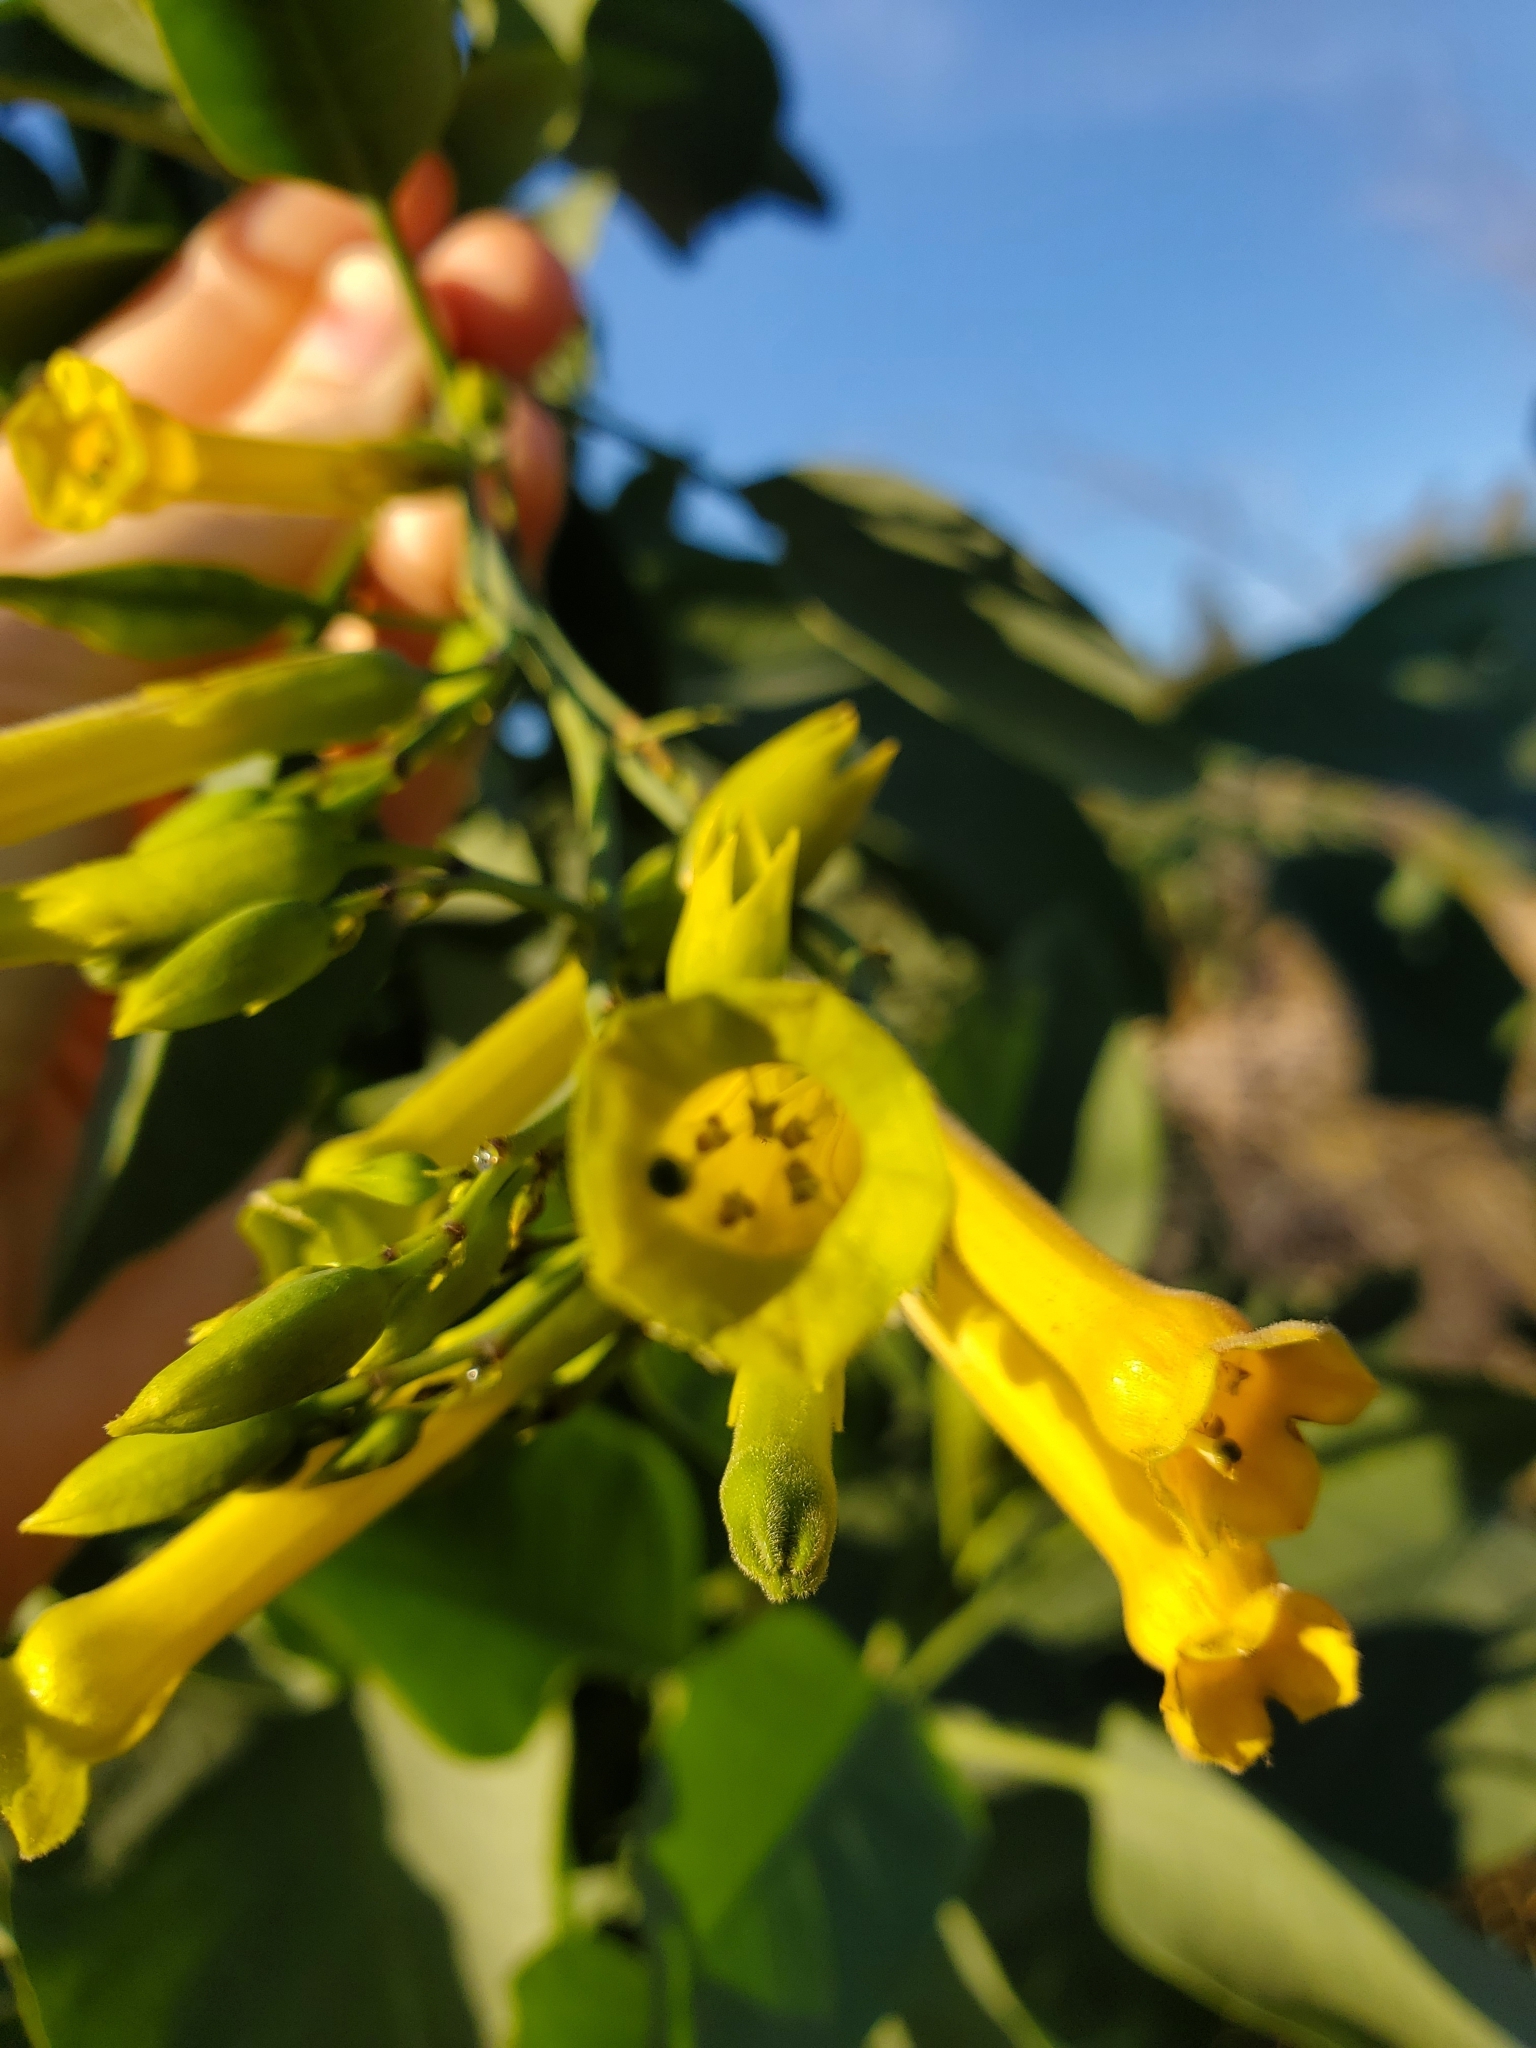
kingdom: Plantae
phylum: Tracheophyta
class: Magnoliopsida
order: Solanales
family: Solanaceae
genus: Nicotiana
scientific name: Nicotiana glauca
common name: Tree tobacco
